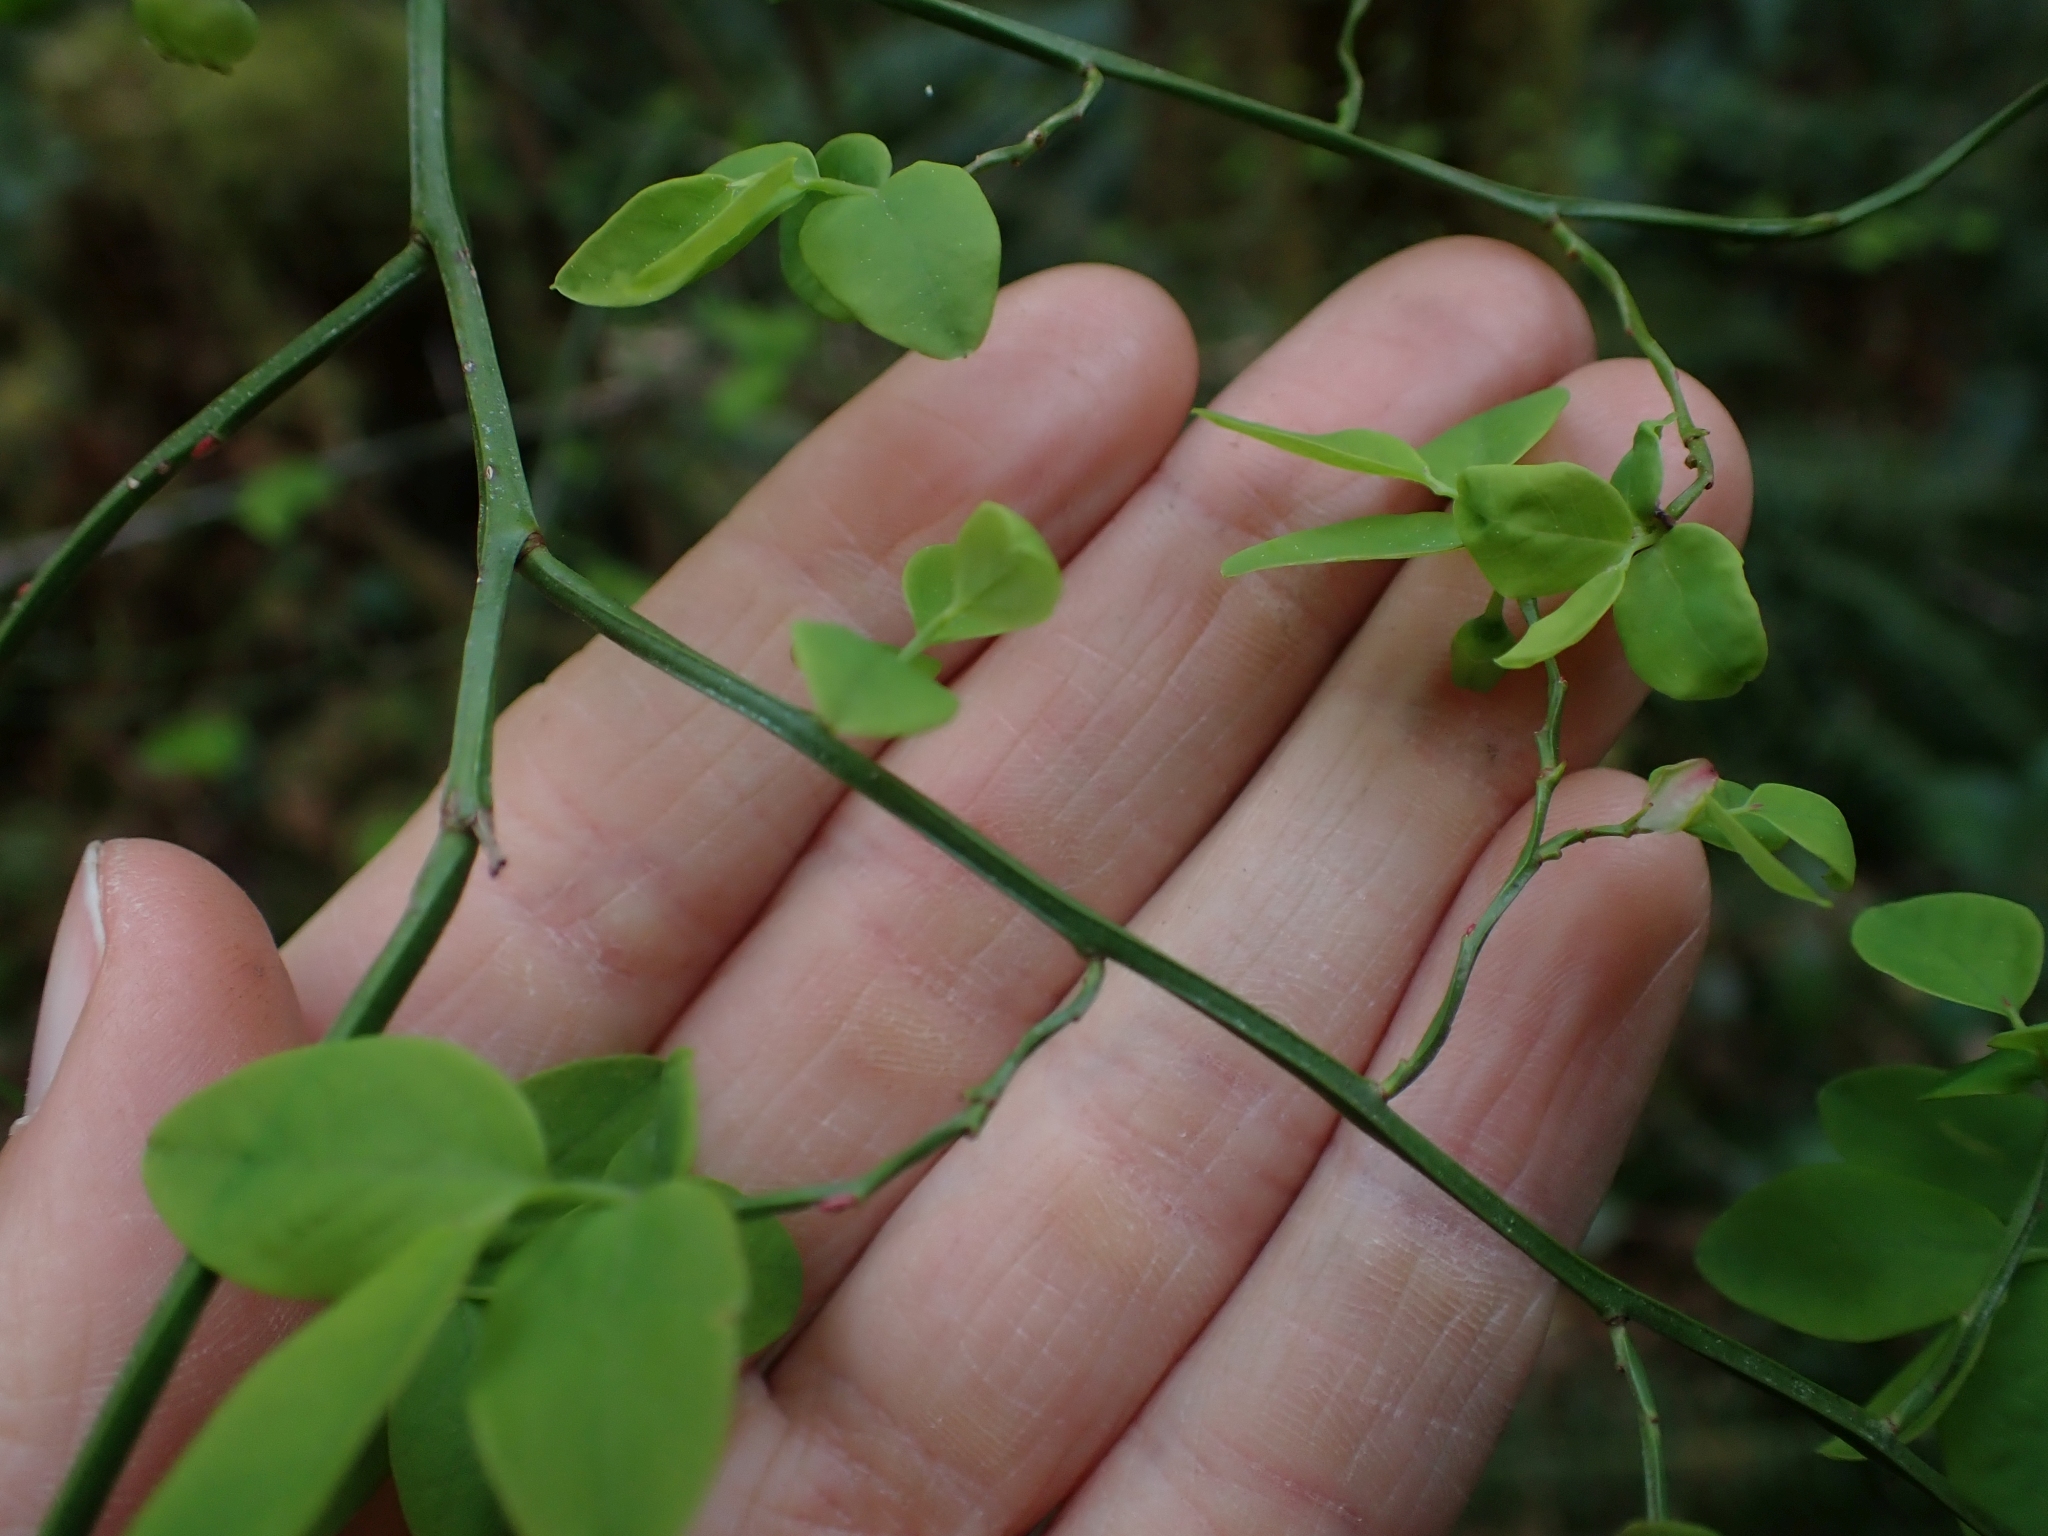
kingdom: Plantae
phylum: Tracheophyta
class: Magnoliopsida
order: Ericales
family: Ericaceae
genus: Vaccinium
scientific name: Vaccinium parvifolium
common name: Red-huckleberry
